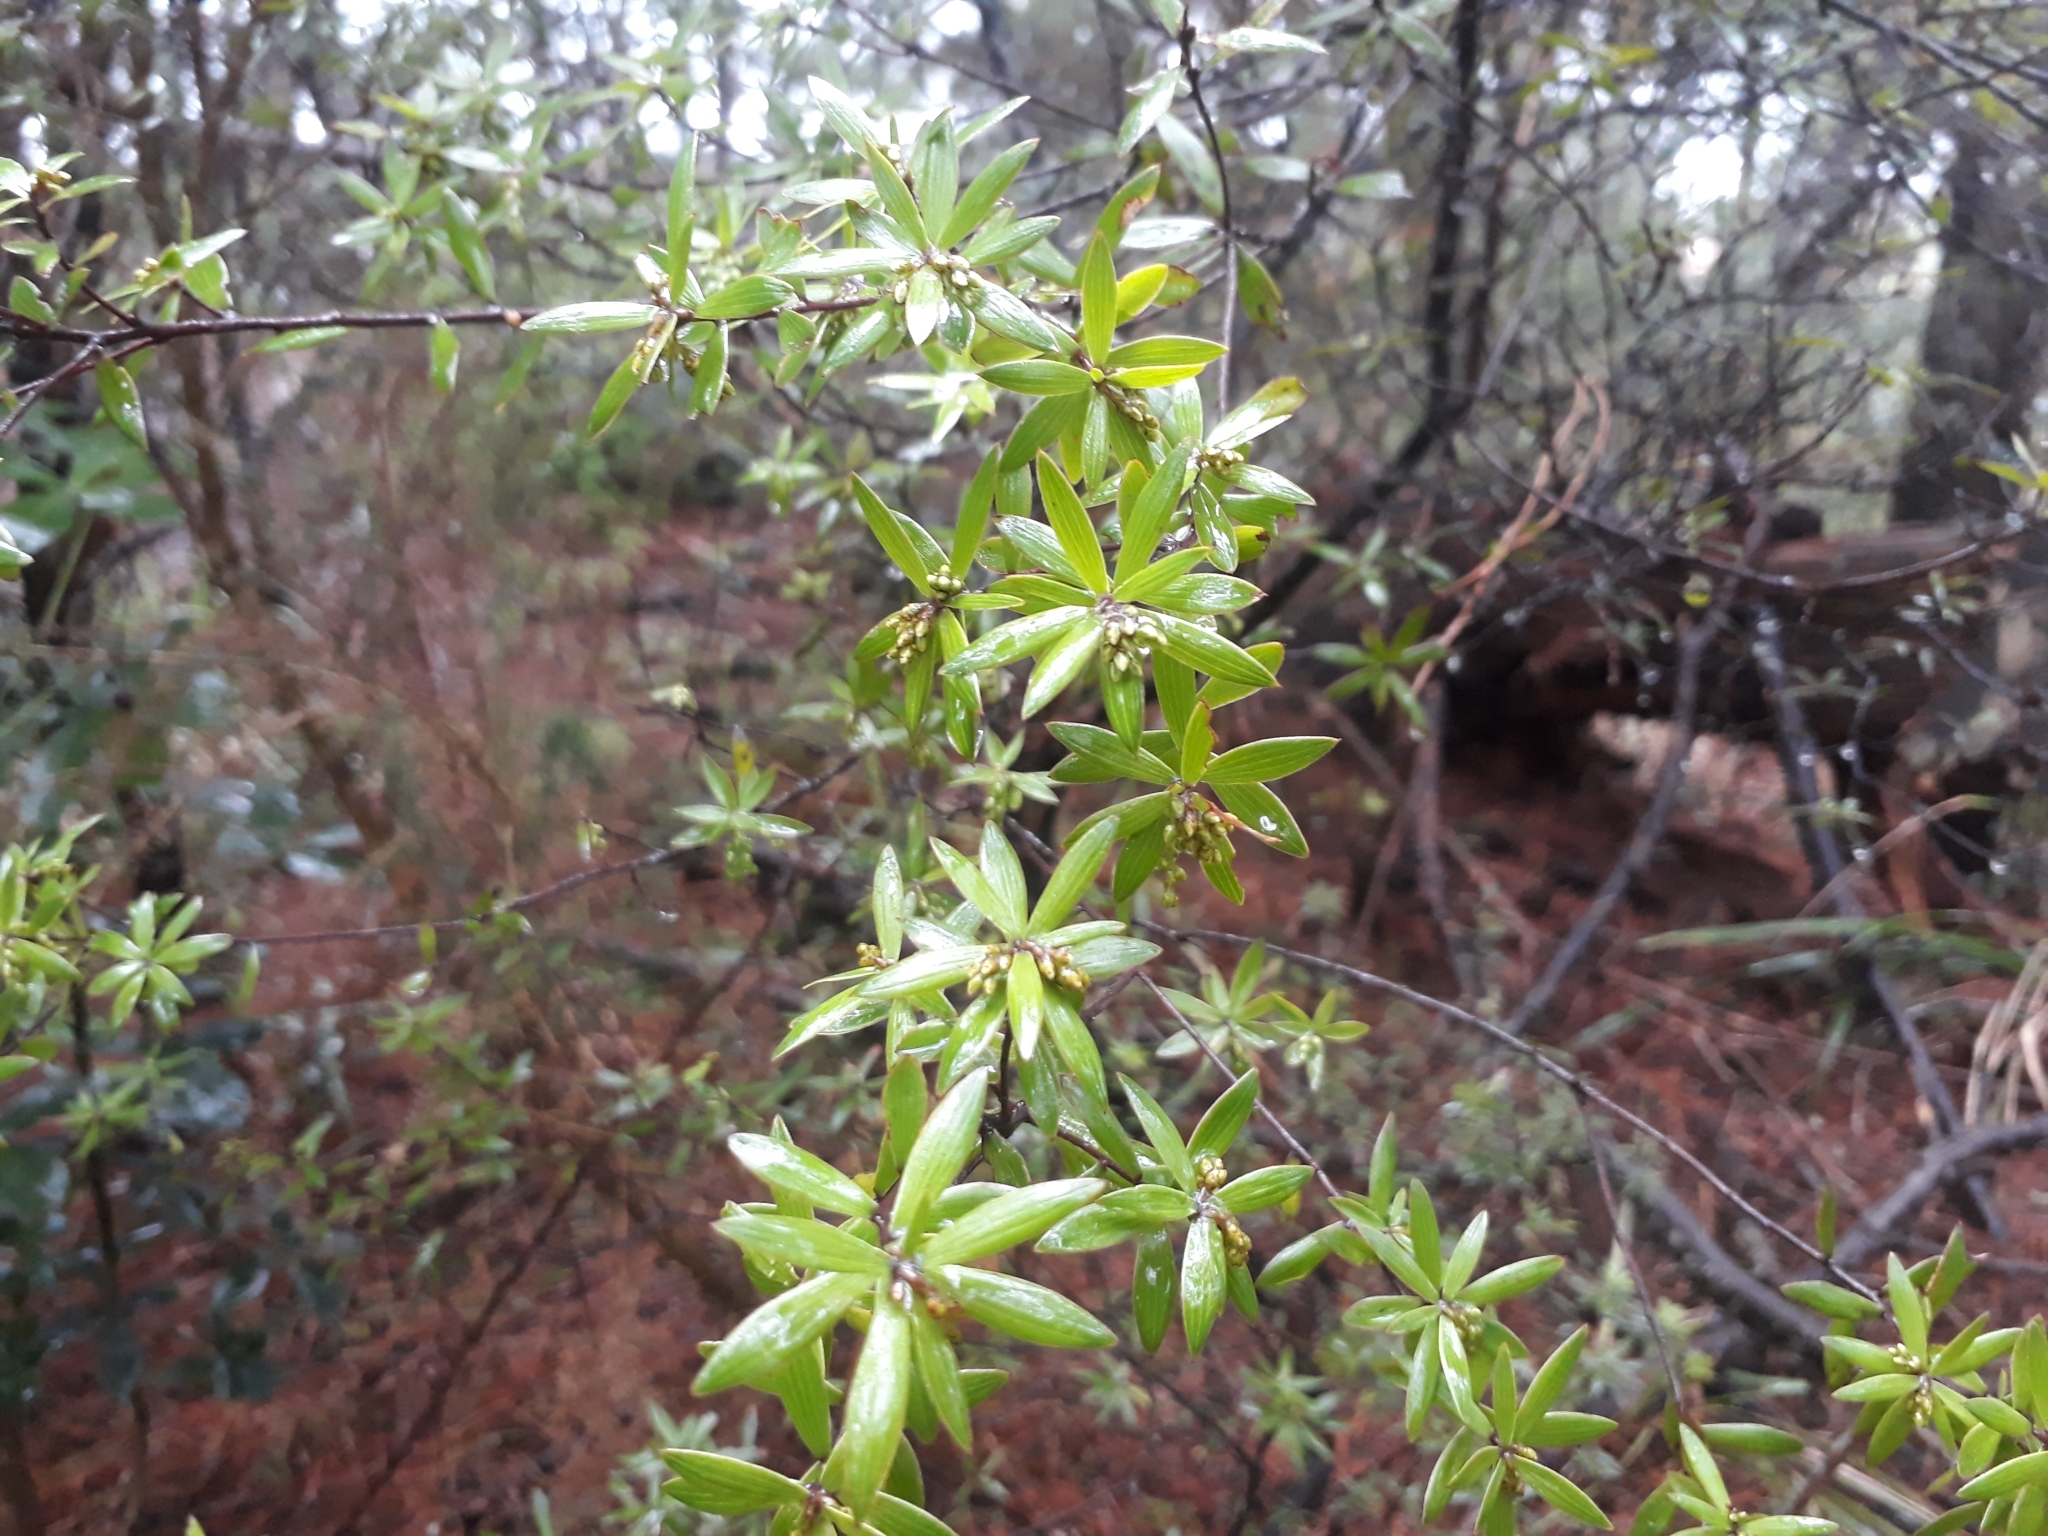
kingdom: Plantae
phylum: Tracheophyta
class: Magnoliopsida
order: Ericales
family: Ericaceae
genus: Leucopogon
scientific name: Leucopogon fasciculatus
